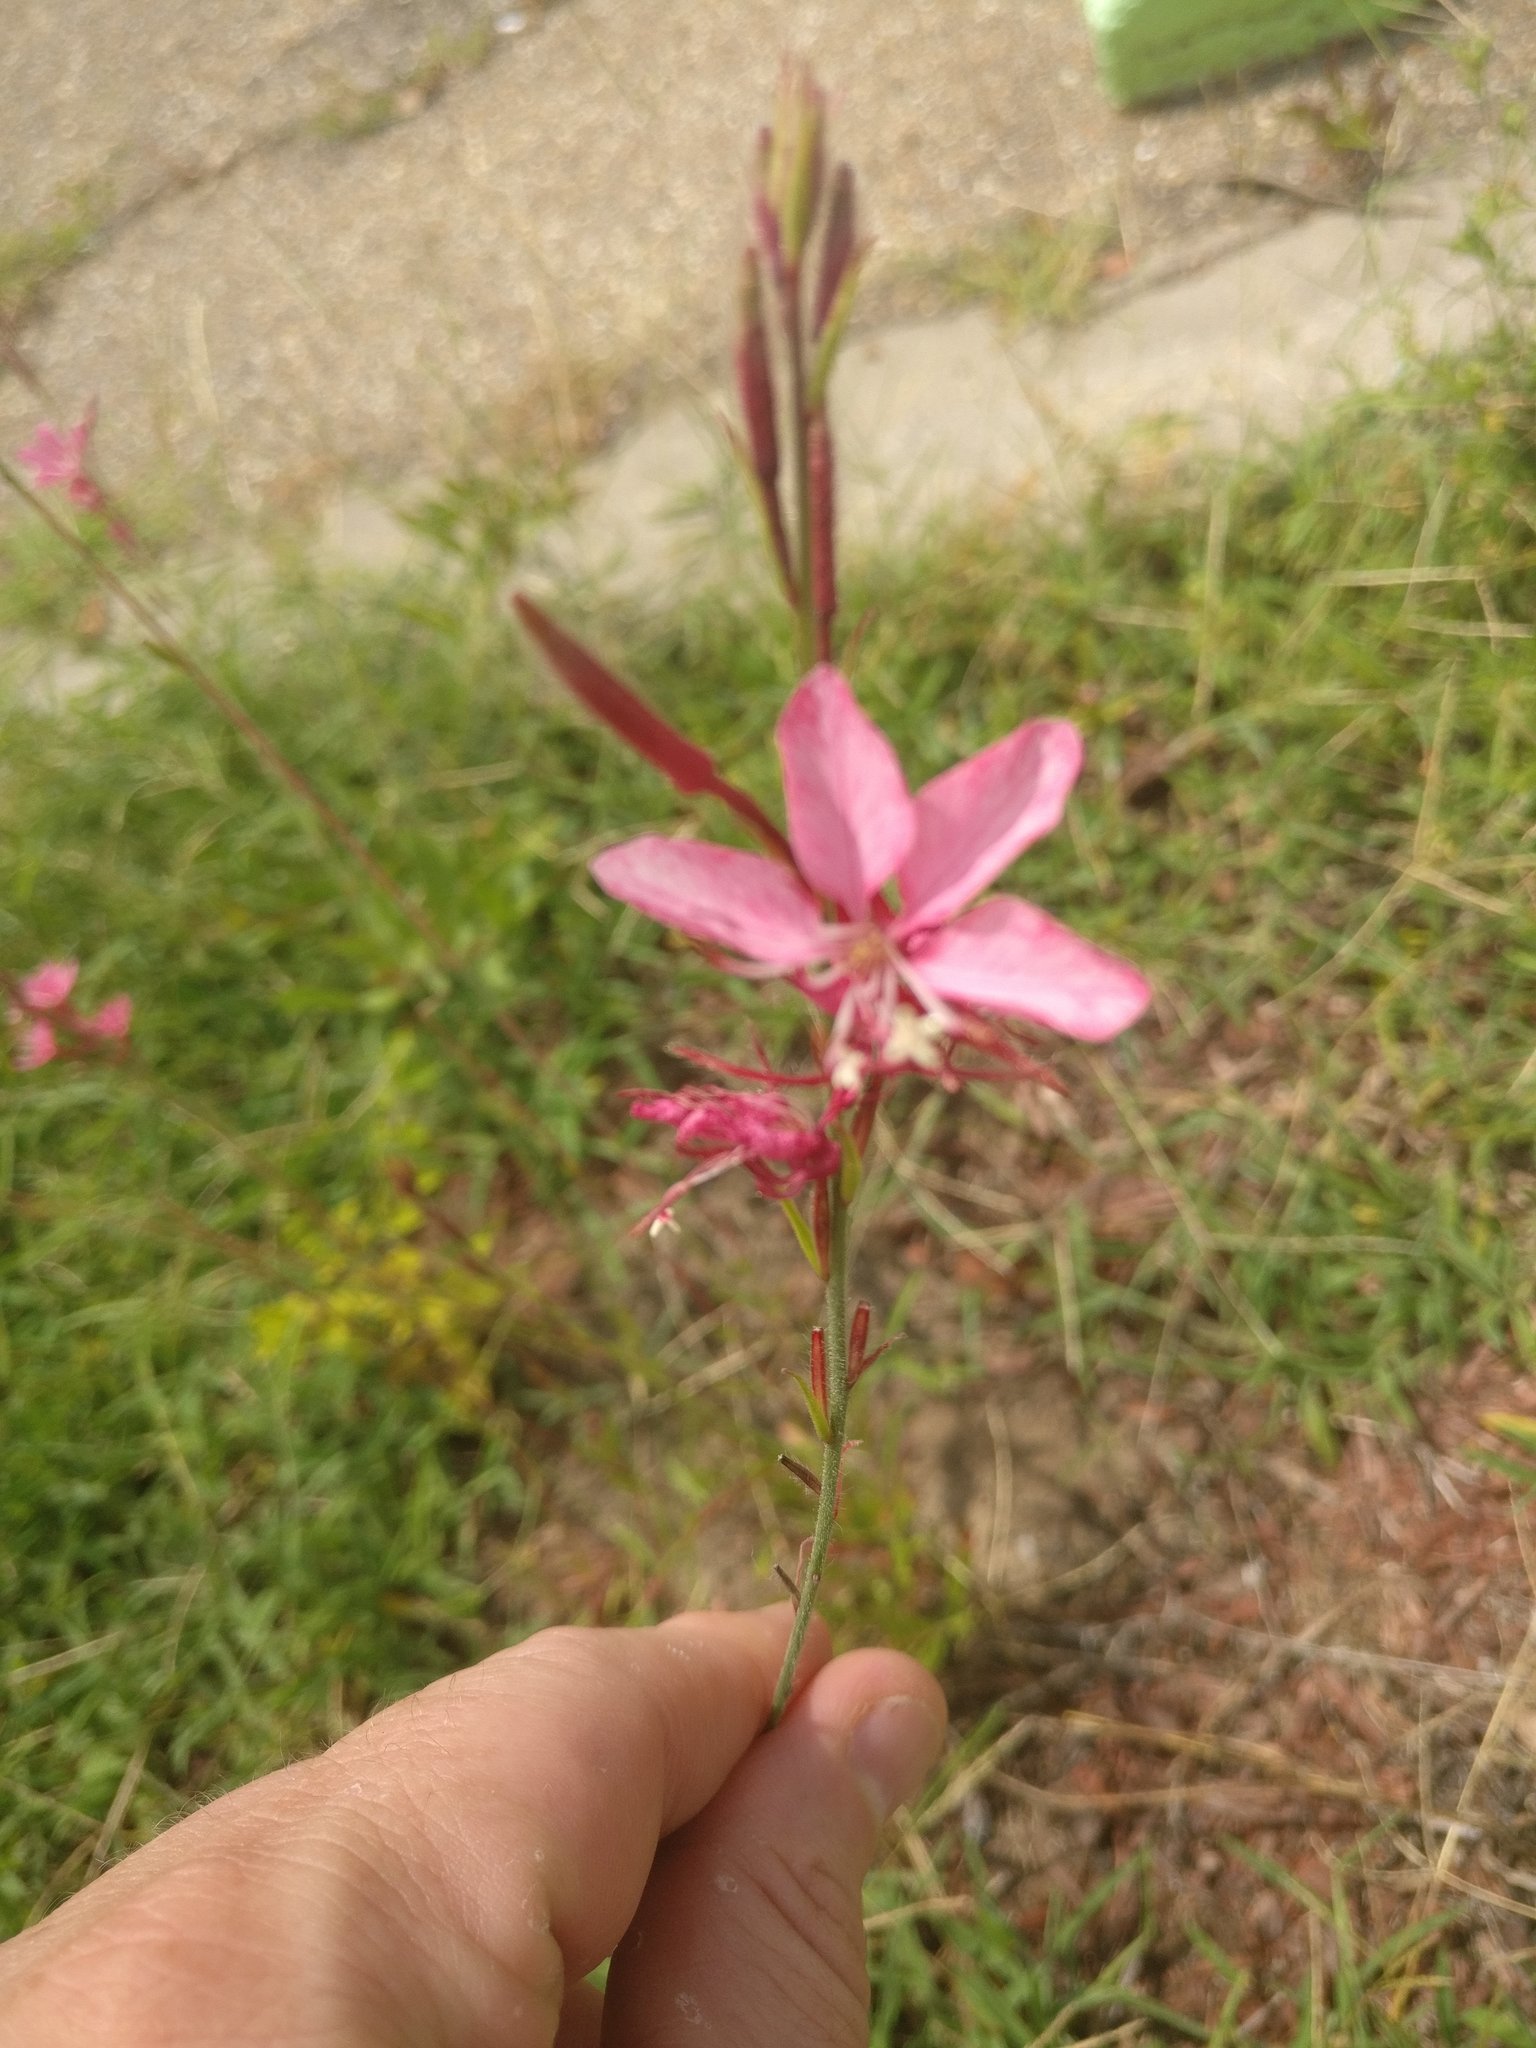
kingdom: Plantae
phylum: Tracheophyta
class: Magnoliopsida
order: Myrtales
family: Onagraceae
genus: Oenothera
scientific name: Oenothera lindheimeri
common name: Lindheimer's beeblossom
